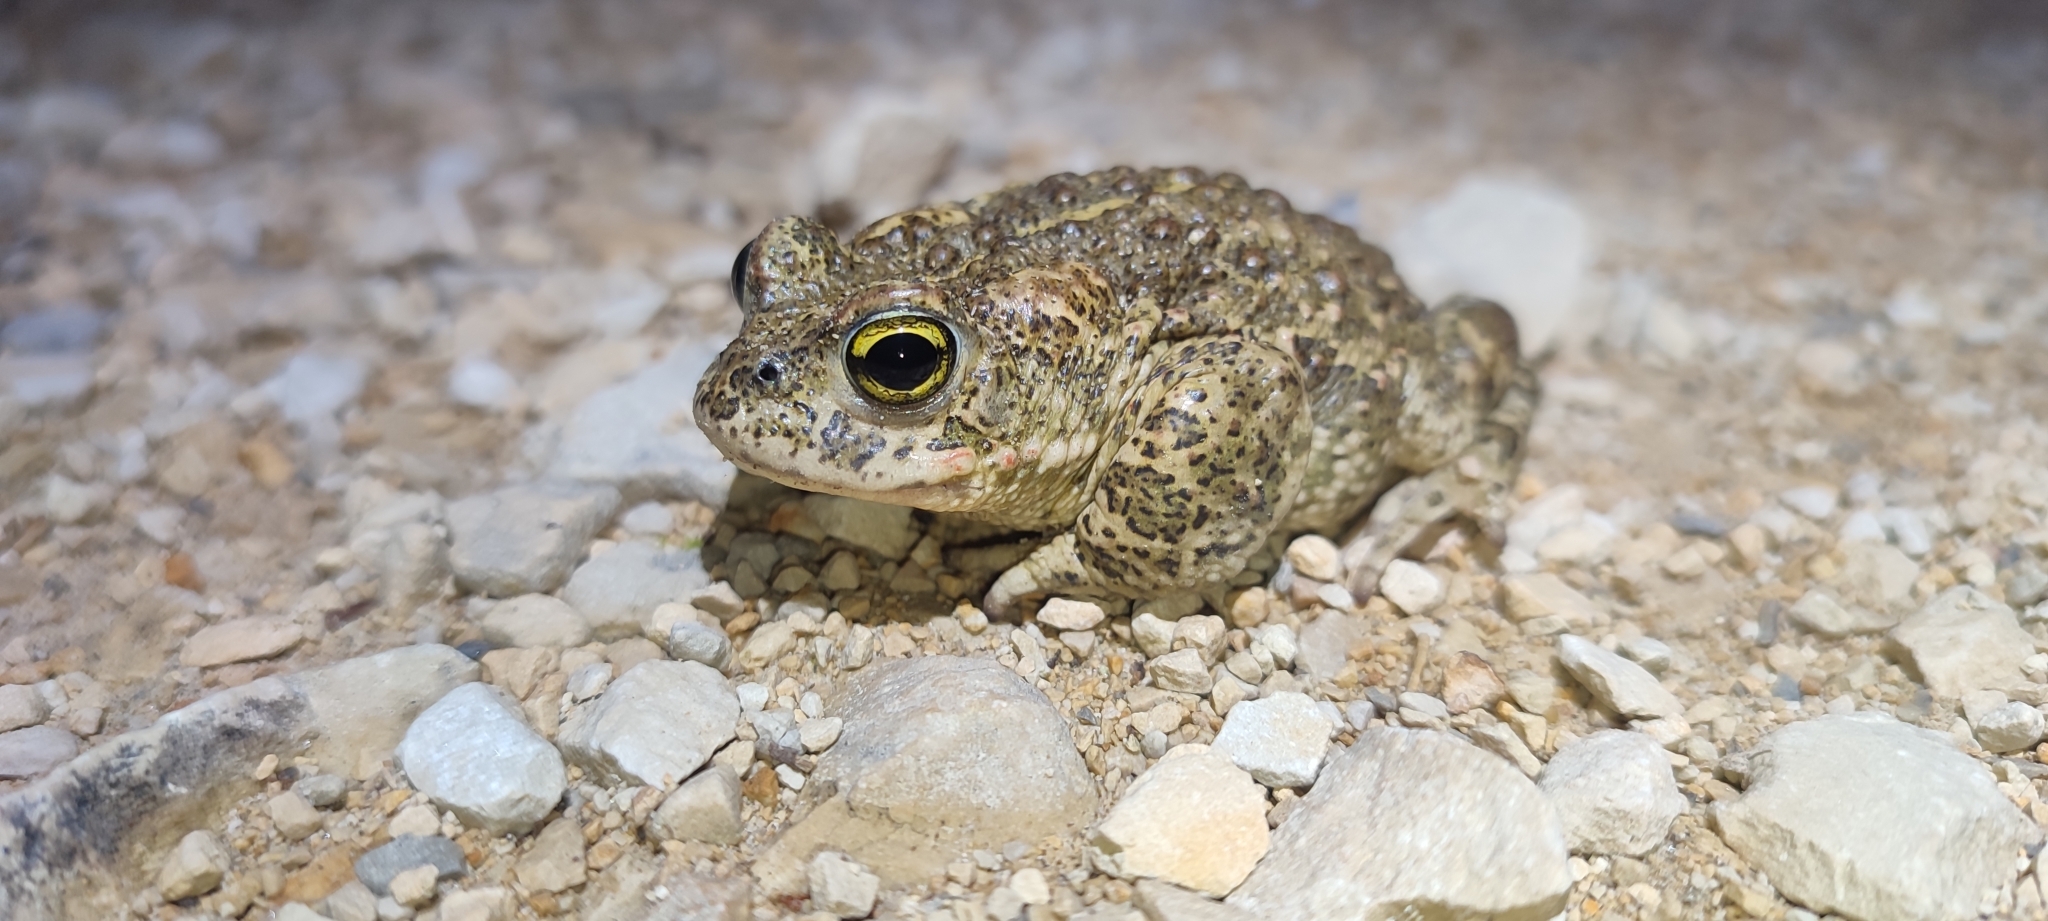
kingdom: Animalia
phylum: Chordata
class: Amphibia
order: Anura
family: Bufonidae
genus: Epidalea
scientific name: Epidalea calamita
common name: Natterjack toad
